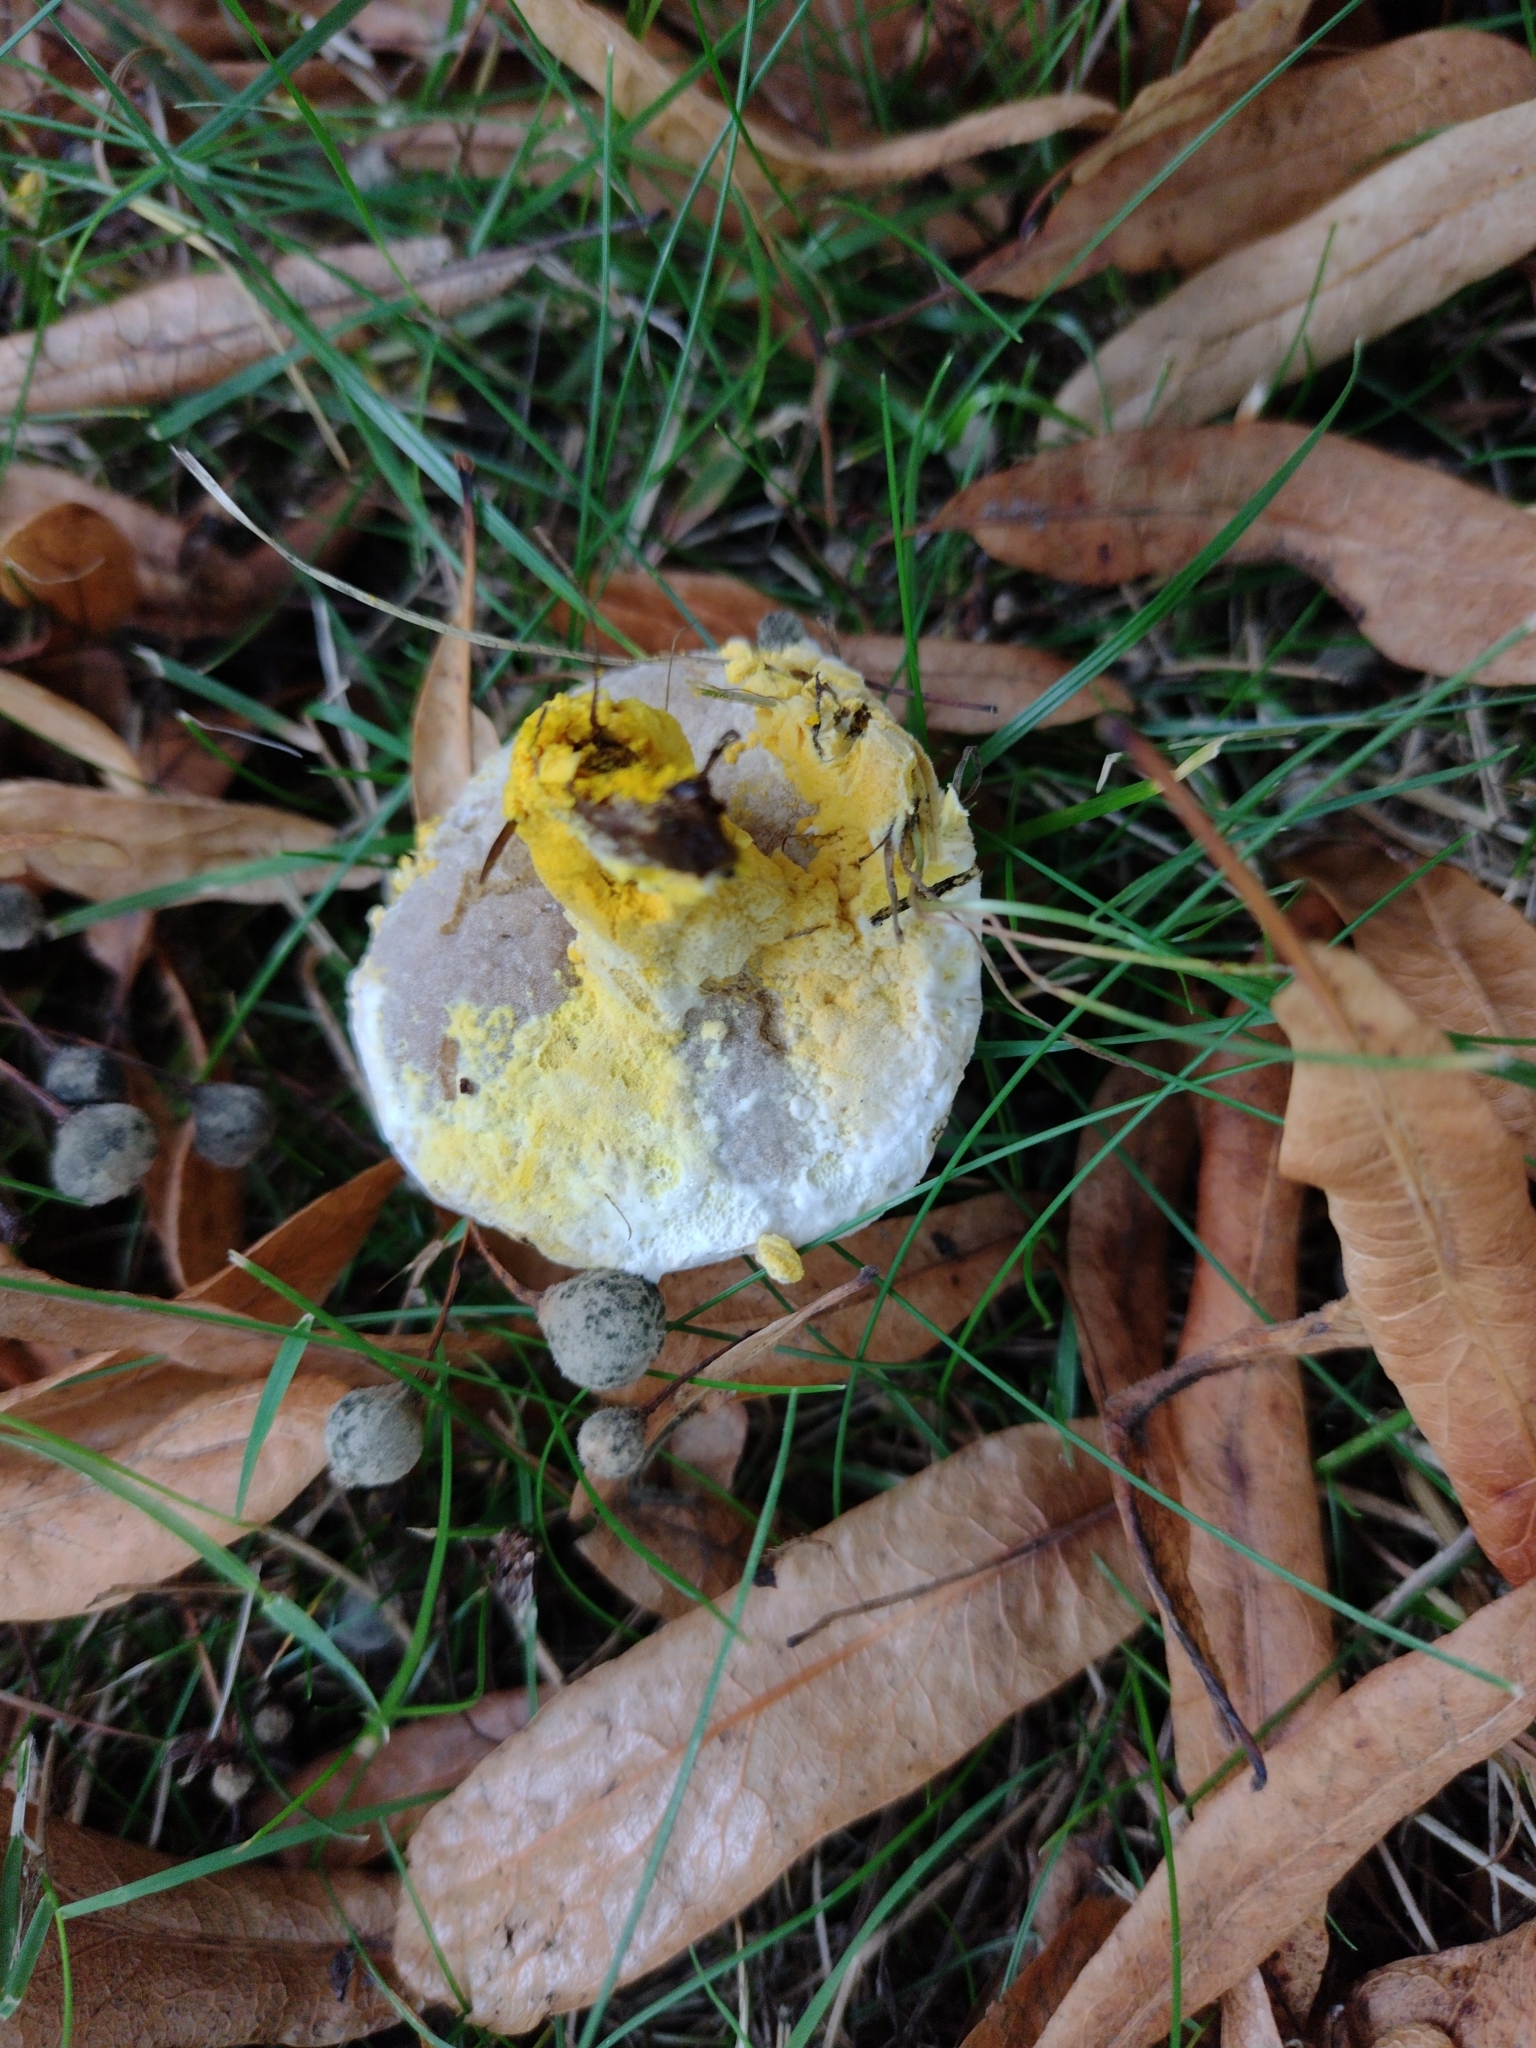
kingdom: Fungi
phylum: Ascomycota
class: Sordariomycetes
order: Hypocreales
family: Hypocreaceae
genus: Hypomyces
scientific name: Hypomyces chrysospermus
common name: Bolete mould
